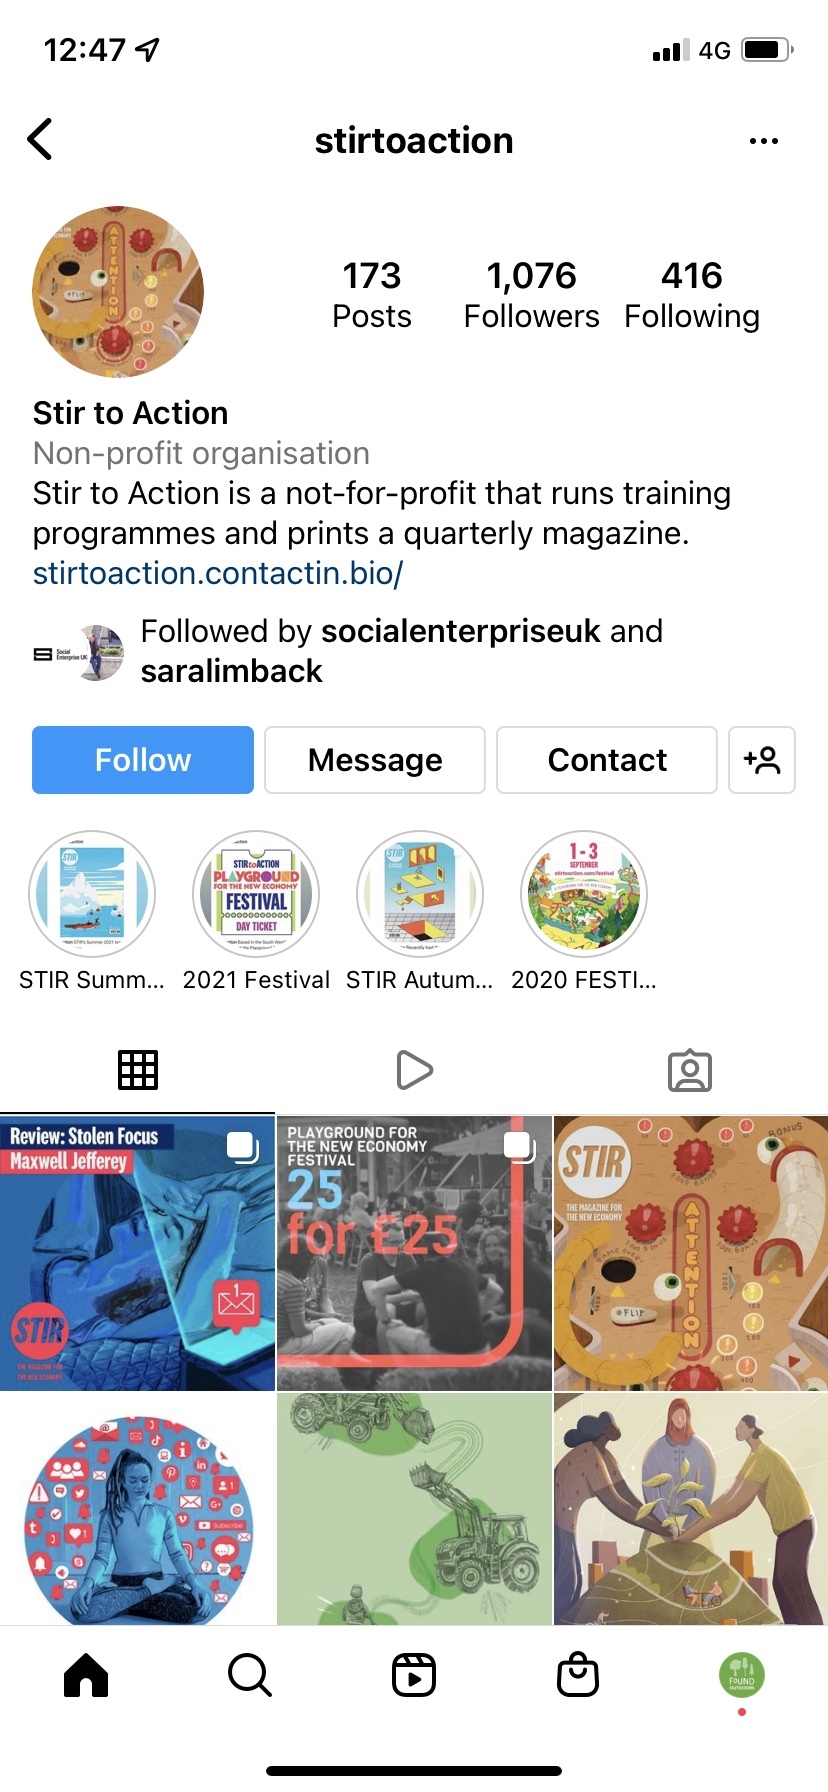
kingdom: Animalia
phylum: Arthropoda
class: Insecta
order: Odonata
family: Coenagrionidae
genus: Pyrrhosoma
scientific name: Pyrrhosoma nymphula
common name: Large red damsel
